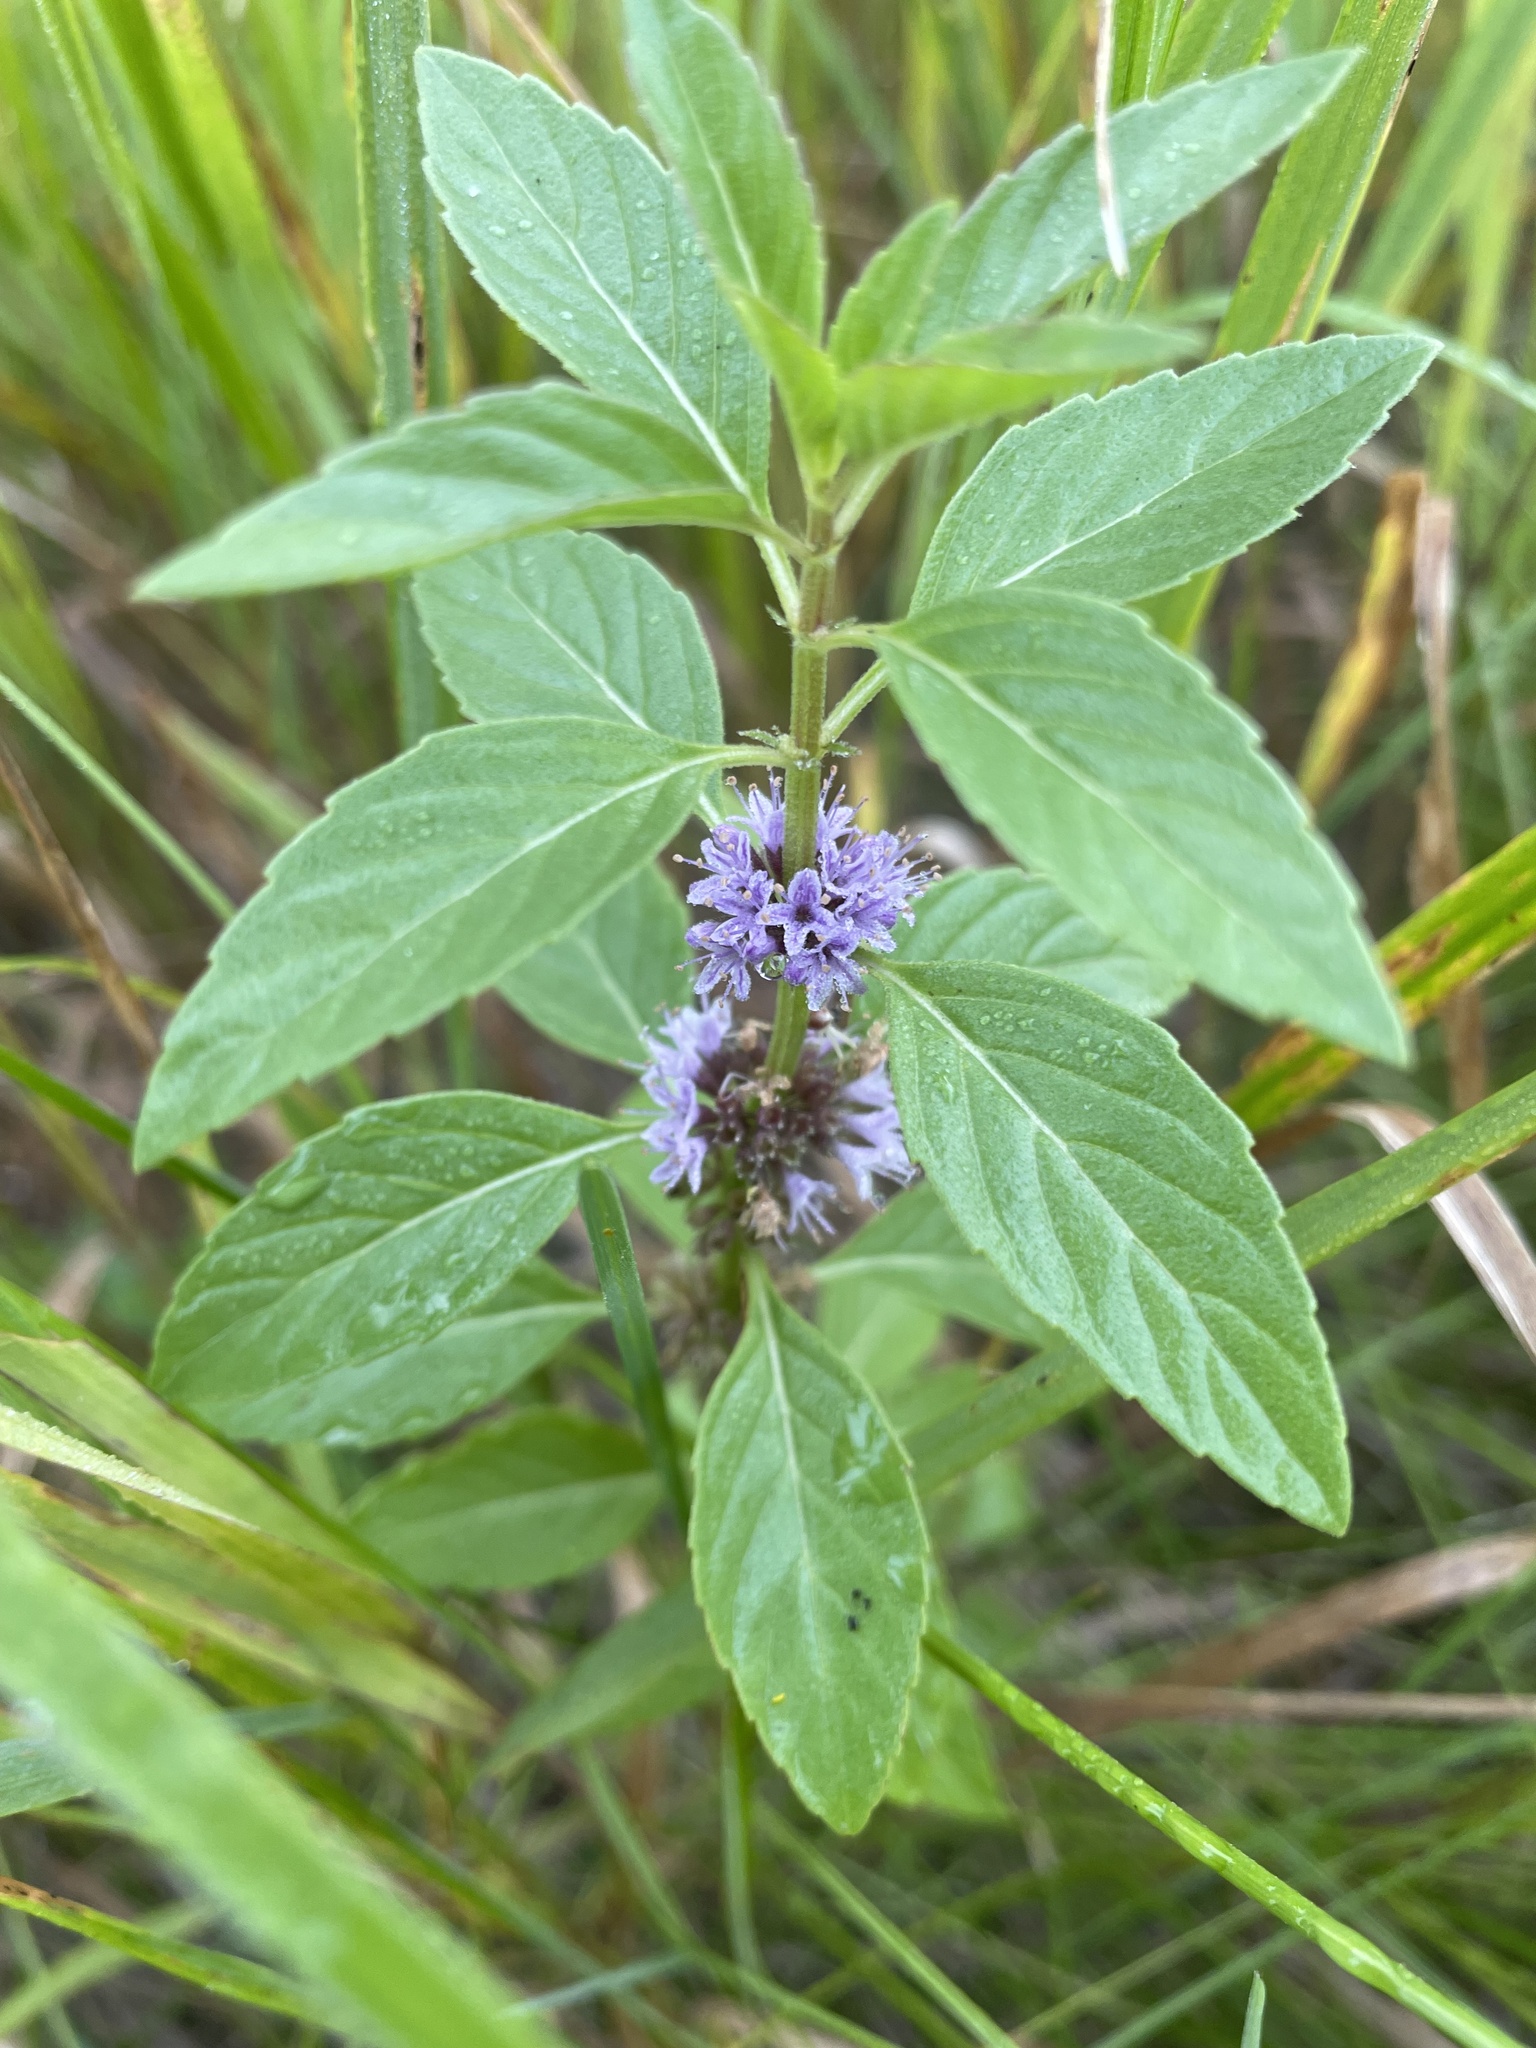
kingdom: Plantae
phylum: Tracheophyta
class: Magnoliopsida
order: Lamiales
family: Lamiaceae
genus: Mentha
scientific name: Mentha canadensis
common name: American corn mint
